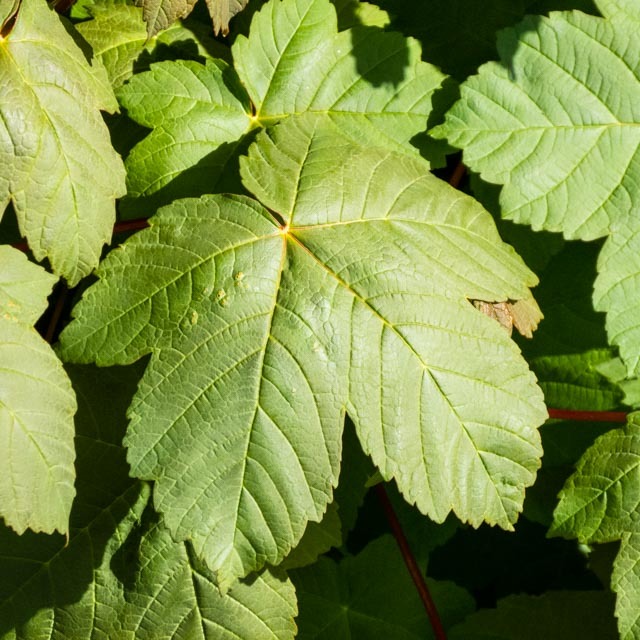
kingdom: Plantae
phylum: Tracheophyta
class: Magnoliopsida
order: Sapindales
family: Sapindaceae
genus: Acer
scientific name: Acer pseudoplatanus
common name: Sycamore
